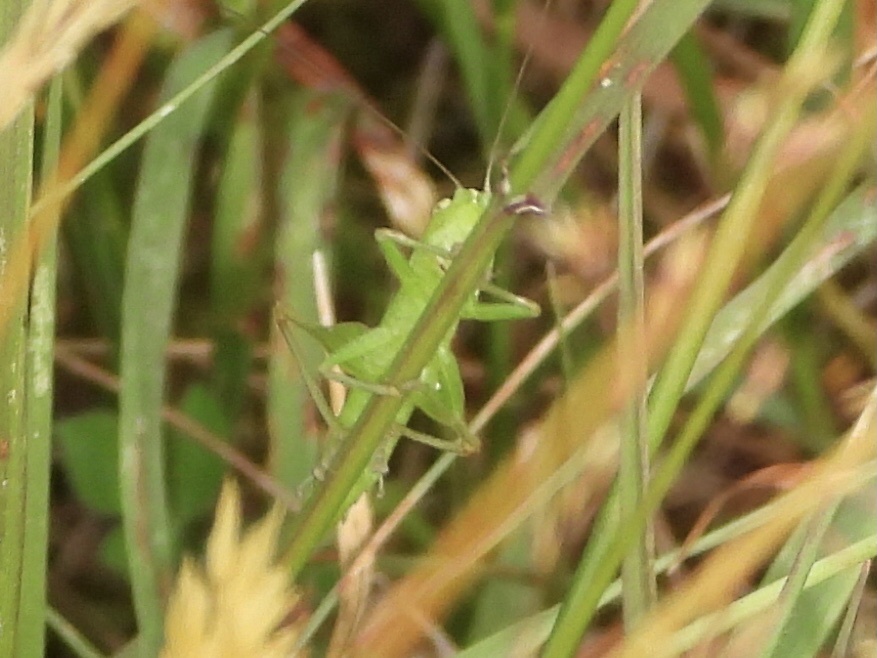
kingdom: Animalia
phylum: Arthropoda
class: Insecta
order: Orthoptera
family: Tettigoniidae
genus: Conocephalus
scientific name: Conocephalus fasciatus
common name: Slender meadow katydid
